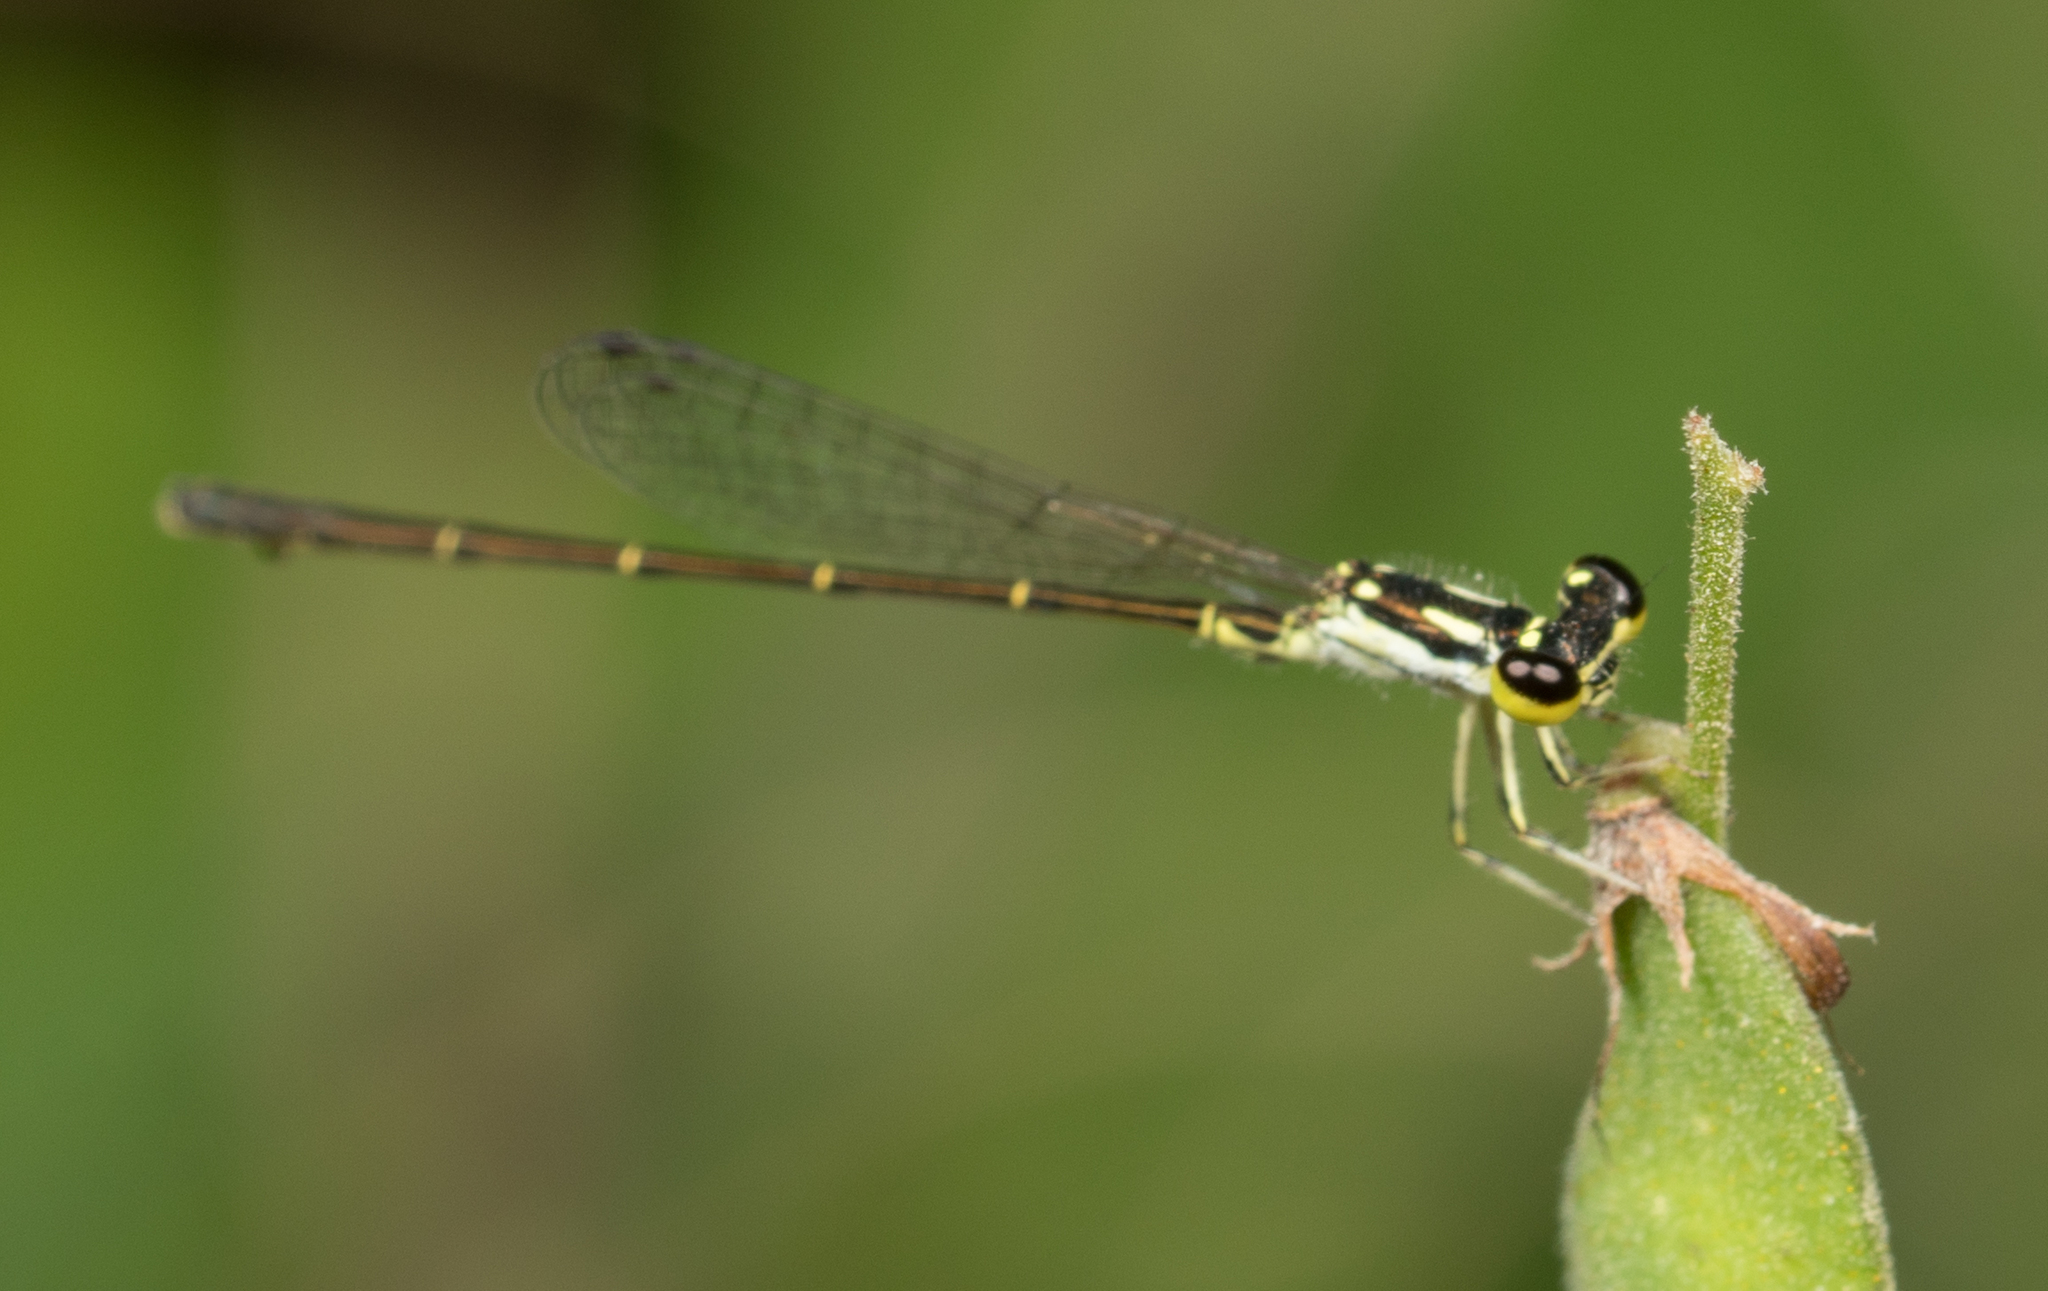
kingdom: Animalia
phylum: Arthropoda
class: Insecta
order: Odonata
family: Coenagrionidae
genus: Ischnura
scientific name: Ischnura posita
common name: Fragile forktail
